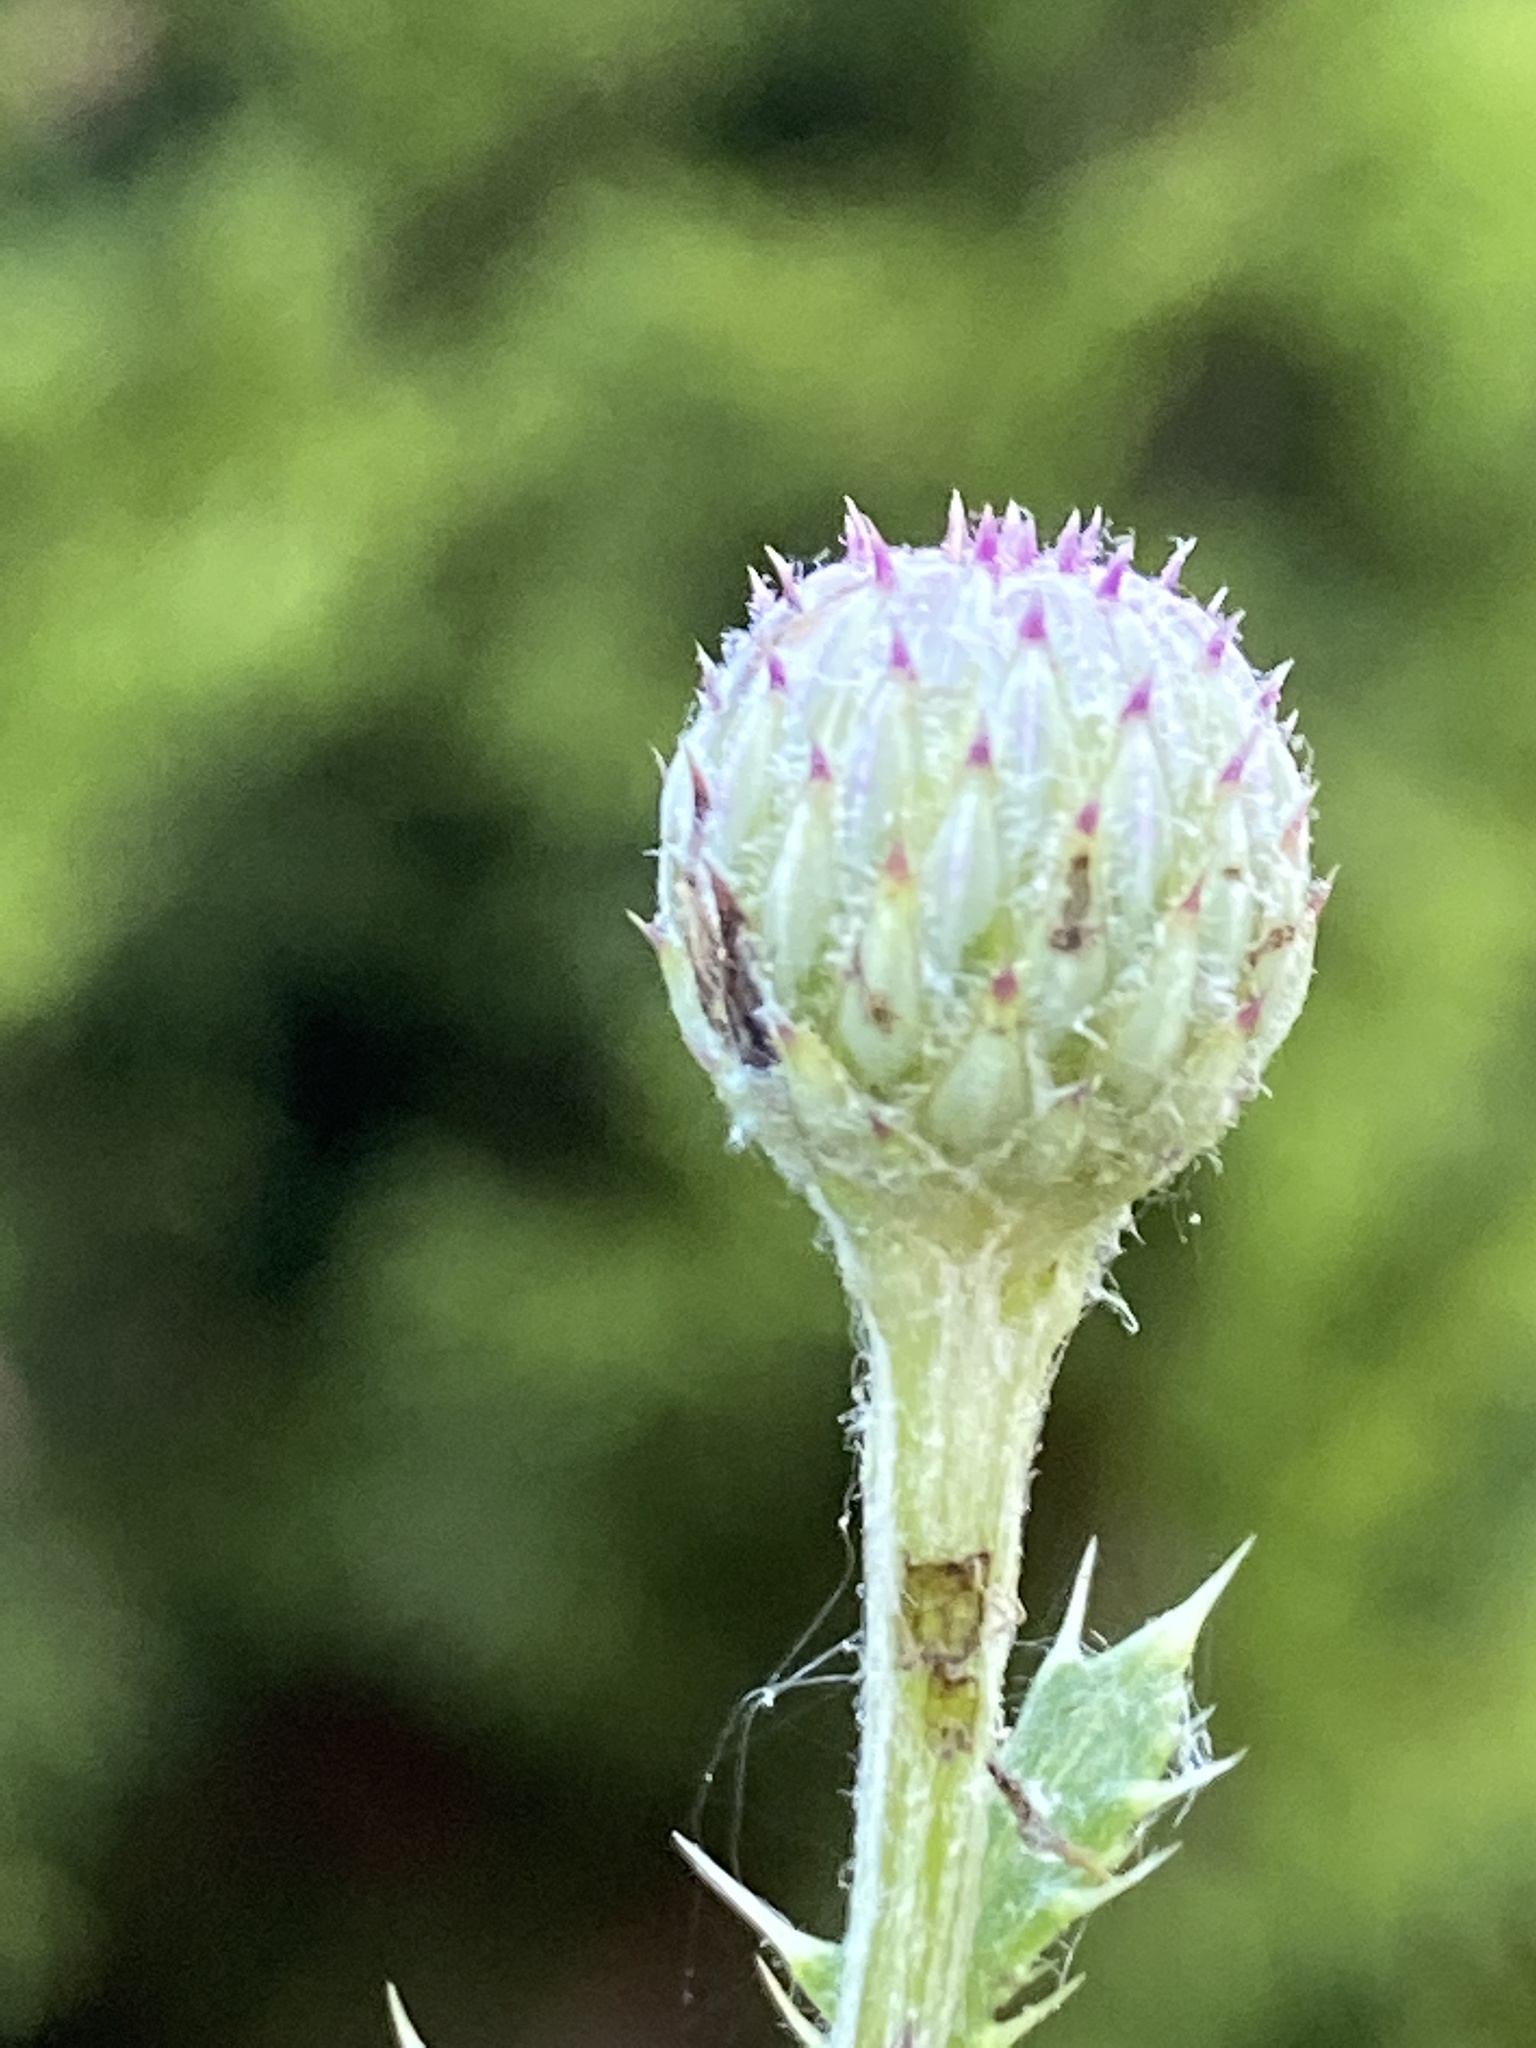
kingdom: Plantae
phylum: Tracheophyta
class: Magnoliopsida
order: Asterales
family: Asteraceae
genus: Cirsium
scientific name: Cirsium arvense
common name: Creeping thistle
